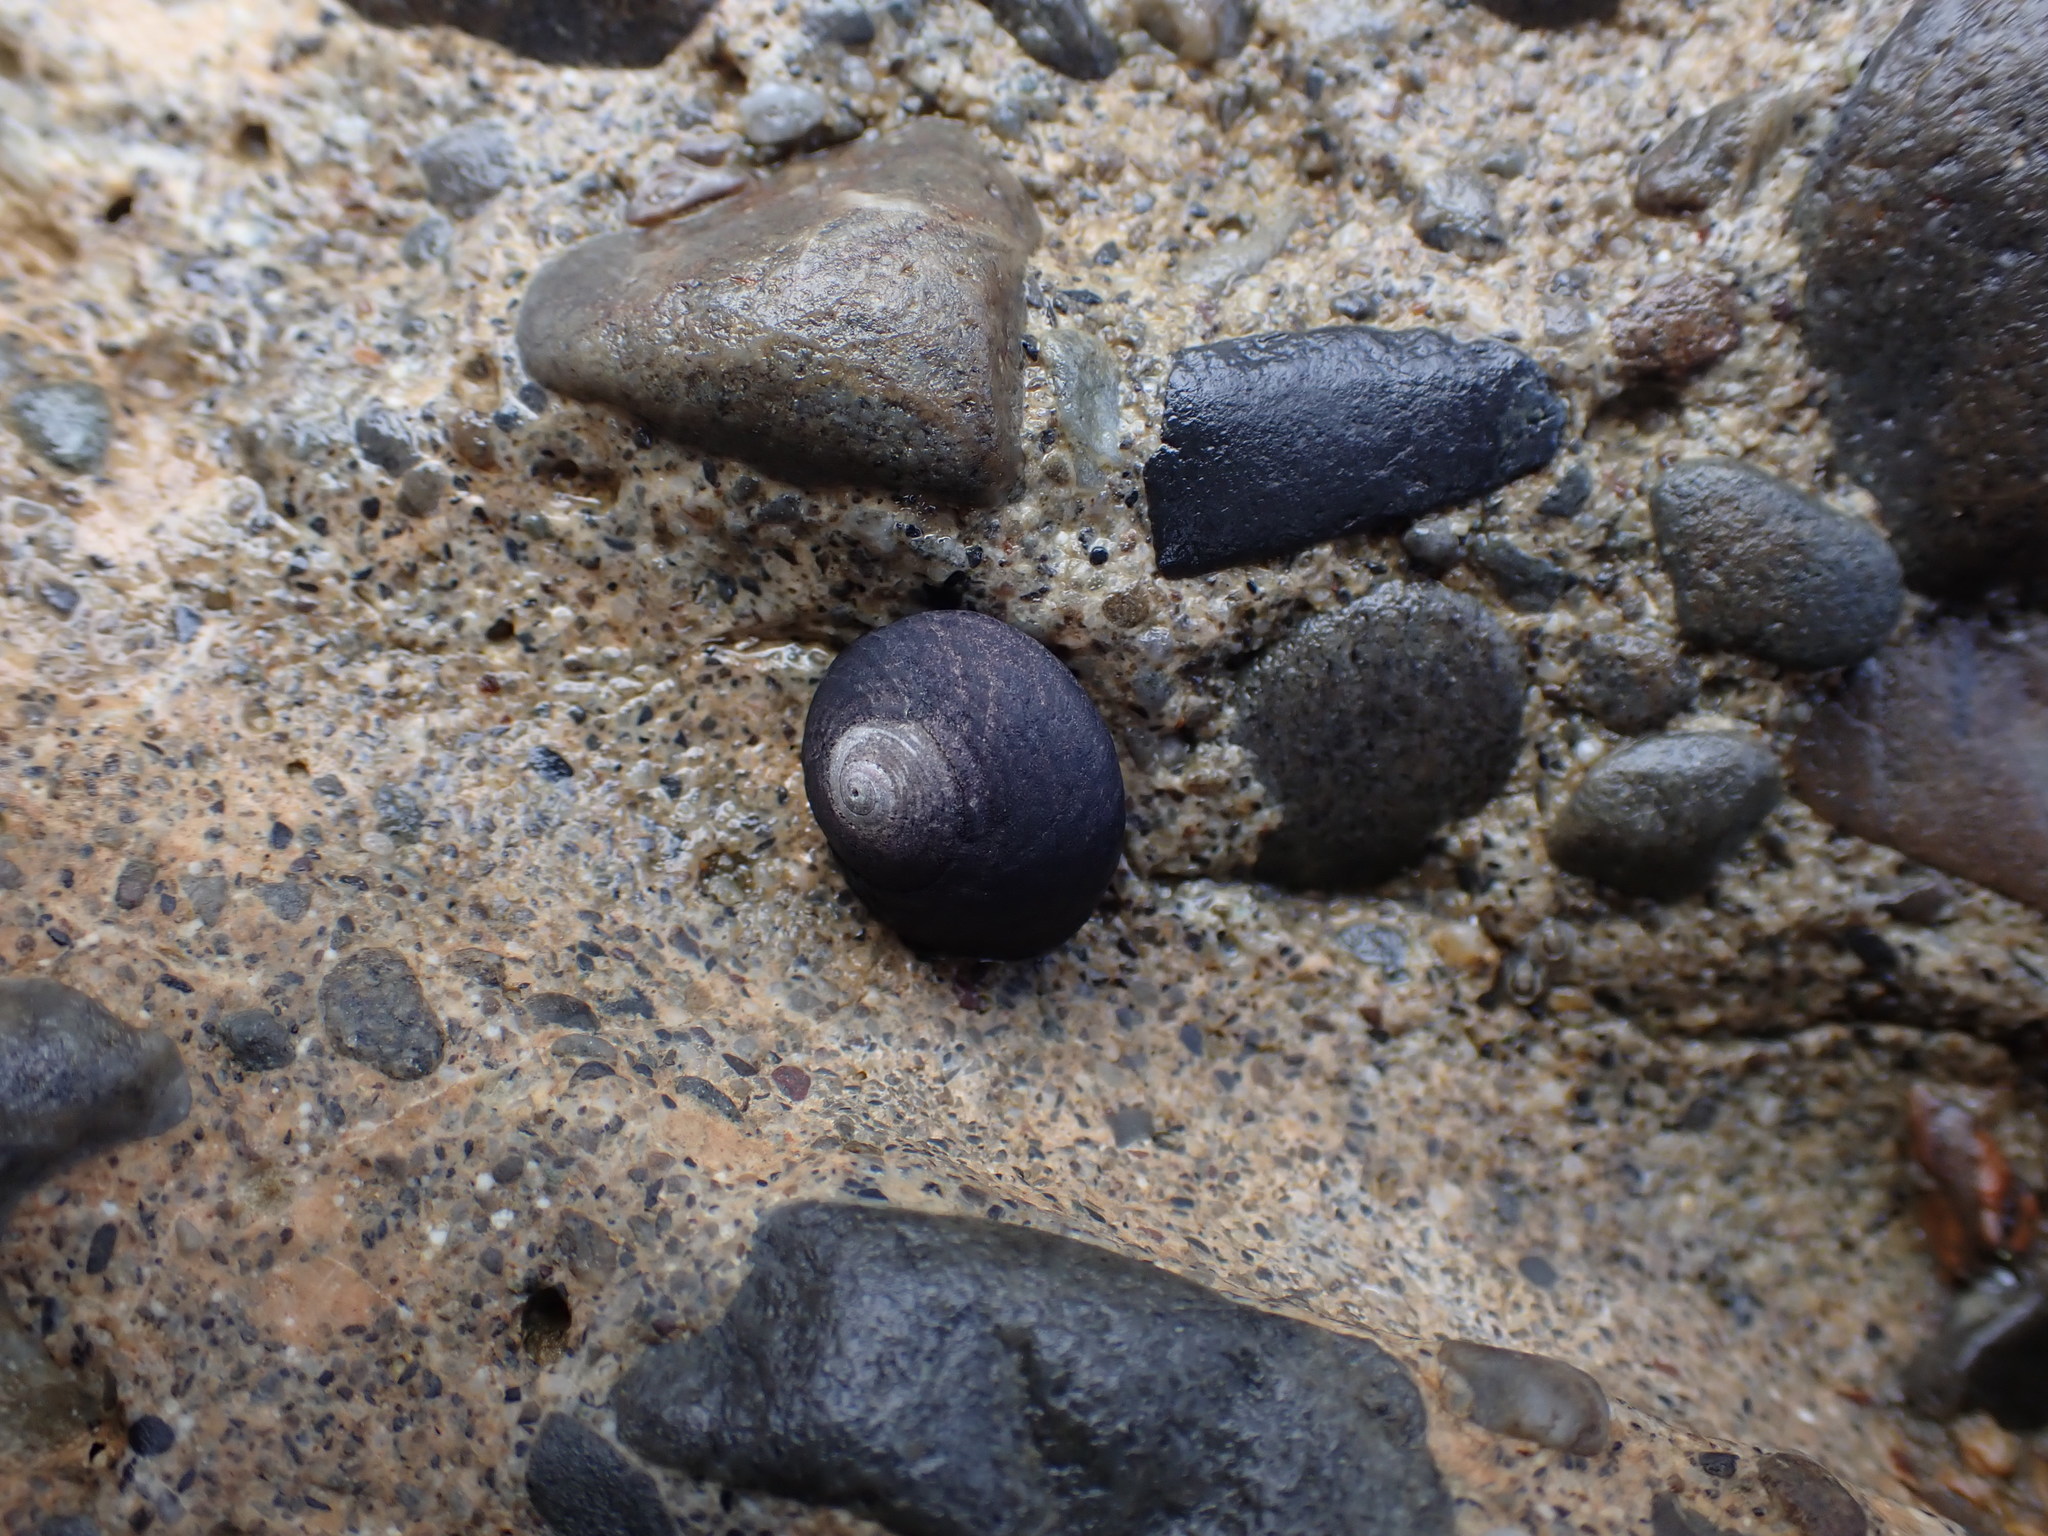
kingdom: Animalia
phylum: Mollusca
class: Gastropoda
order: Trochida
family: Trochidae
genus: Diloma
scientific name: Diloma aridum
